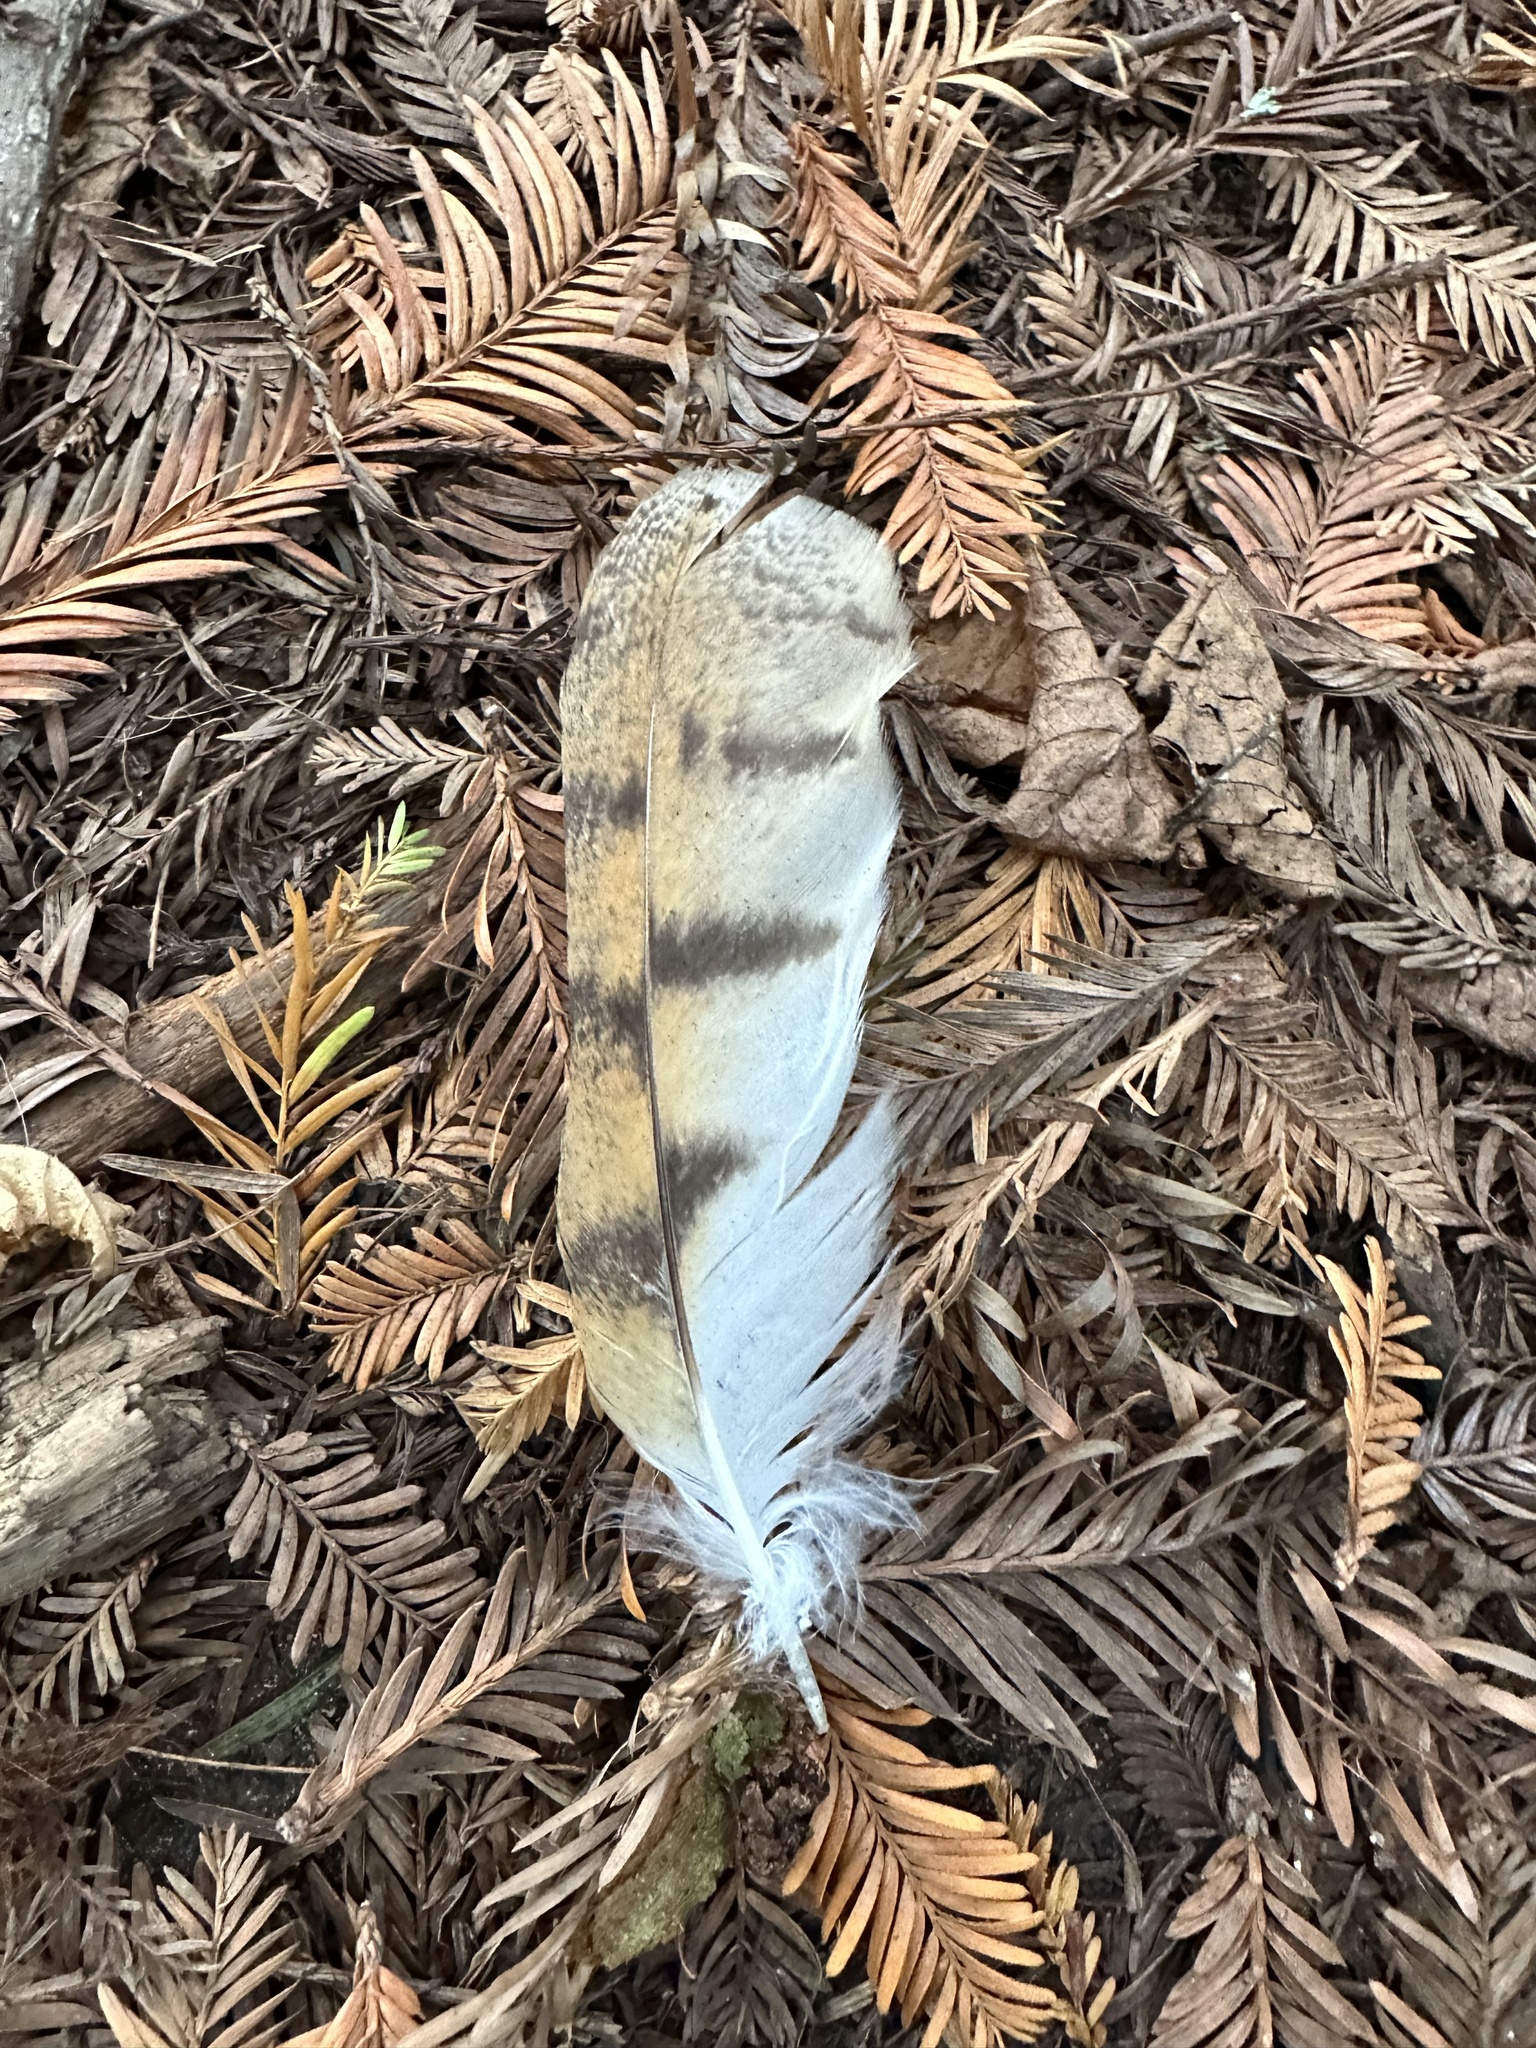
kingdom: Animalia
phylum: Chordata
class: Aves
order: Strigiformes
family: Tytonidae
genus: Tyto
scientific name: Tyto alba
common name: Barn owl
